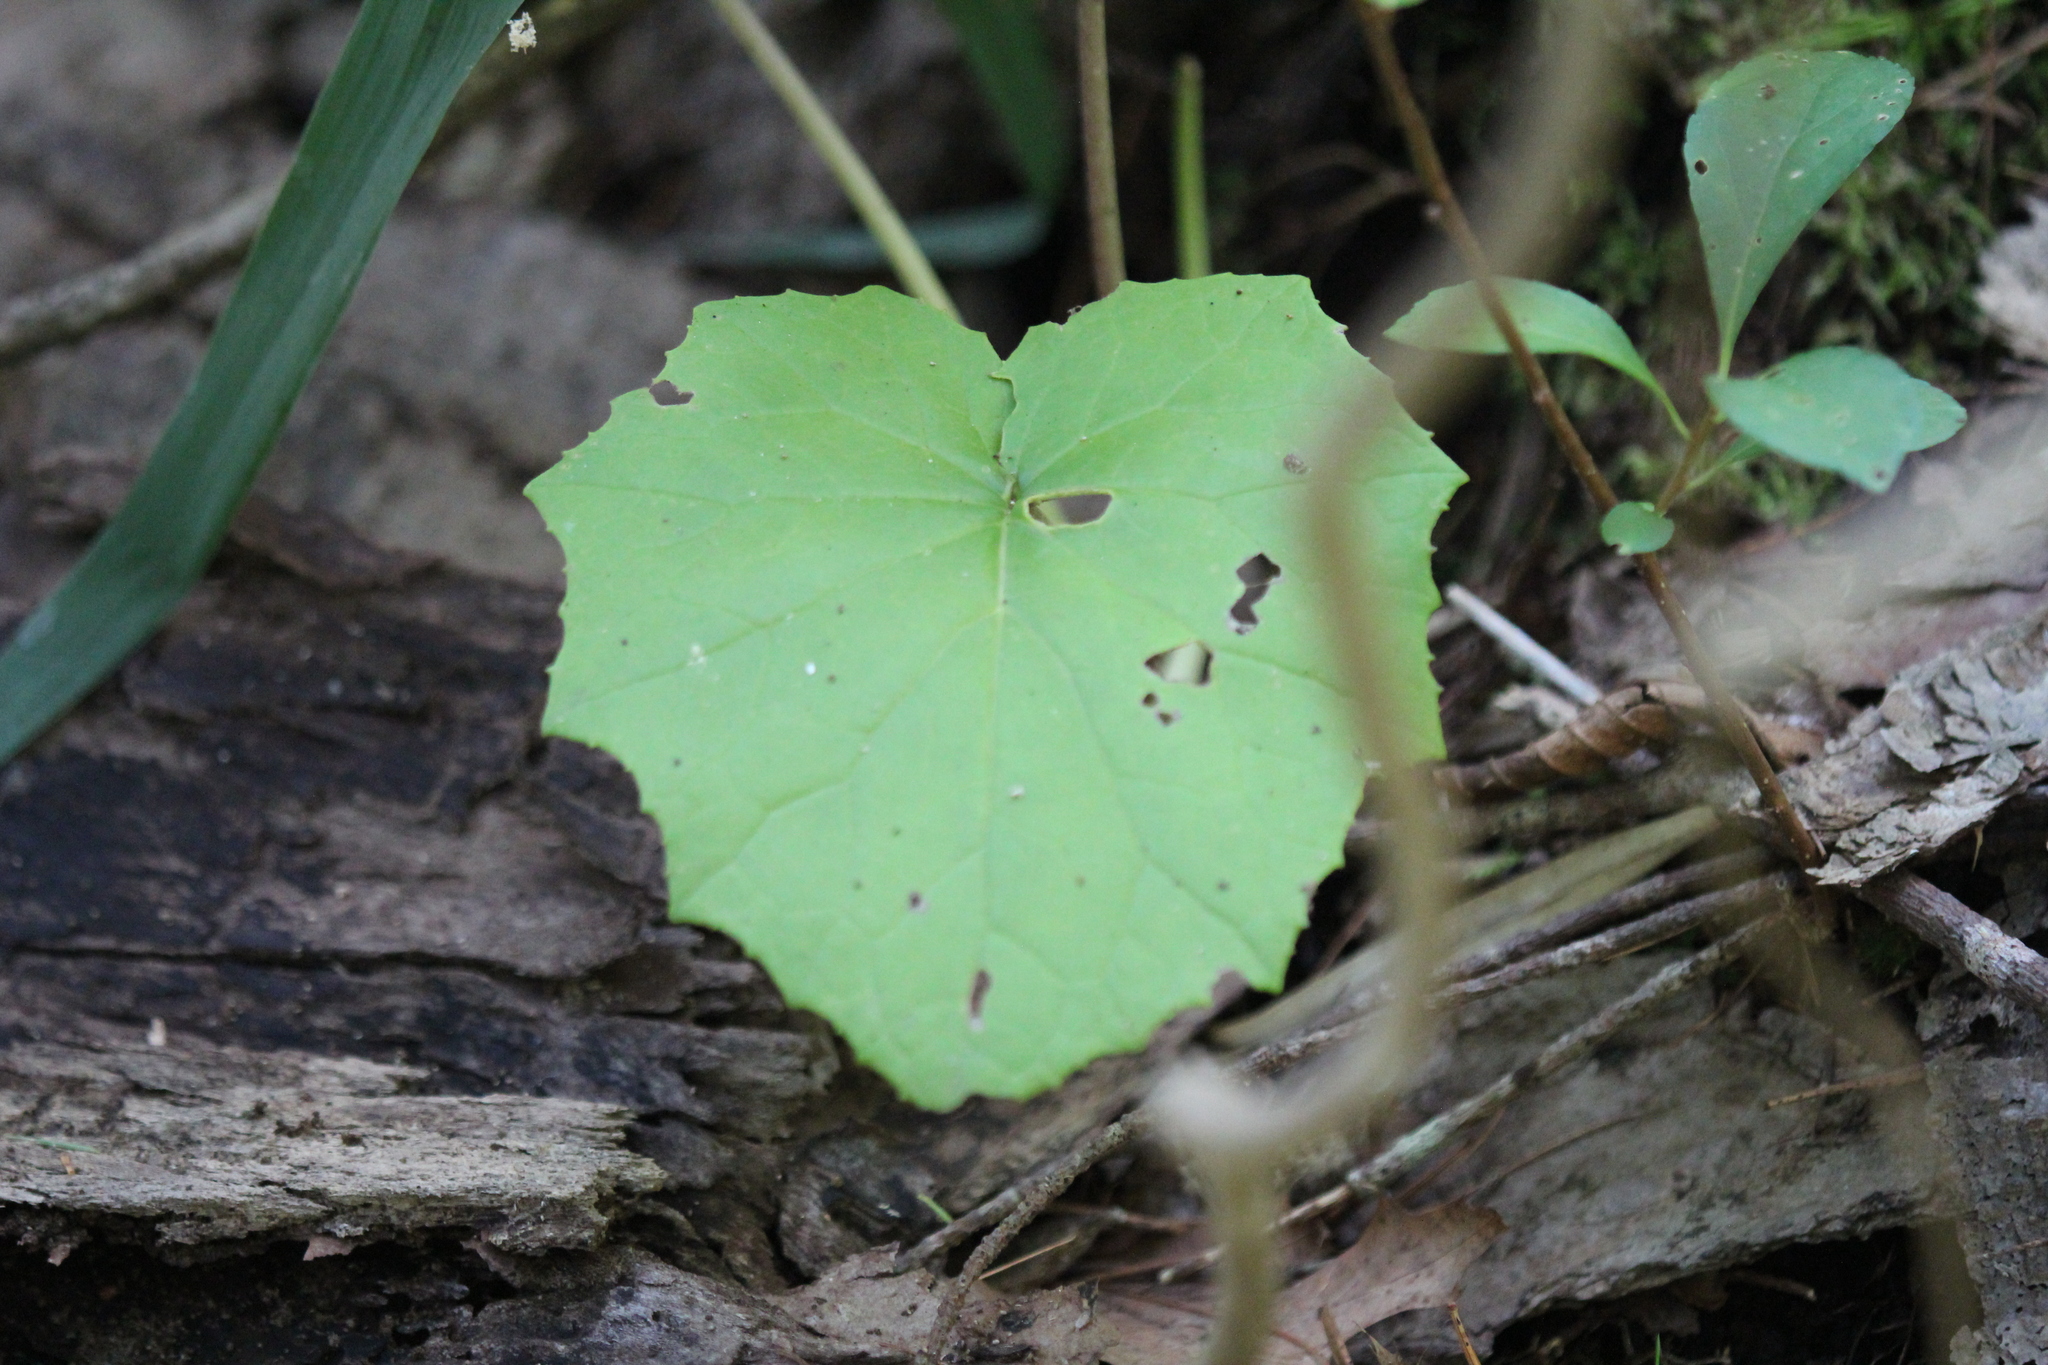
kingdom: Plantae
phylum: Tracheophyta
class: Magnoliopsida
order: Asterales
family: Asteraceae
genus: Tussilago
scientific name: Tussilago farfara
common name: Coltsfoot
